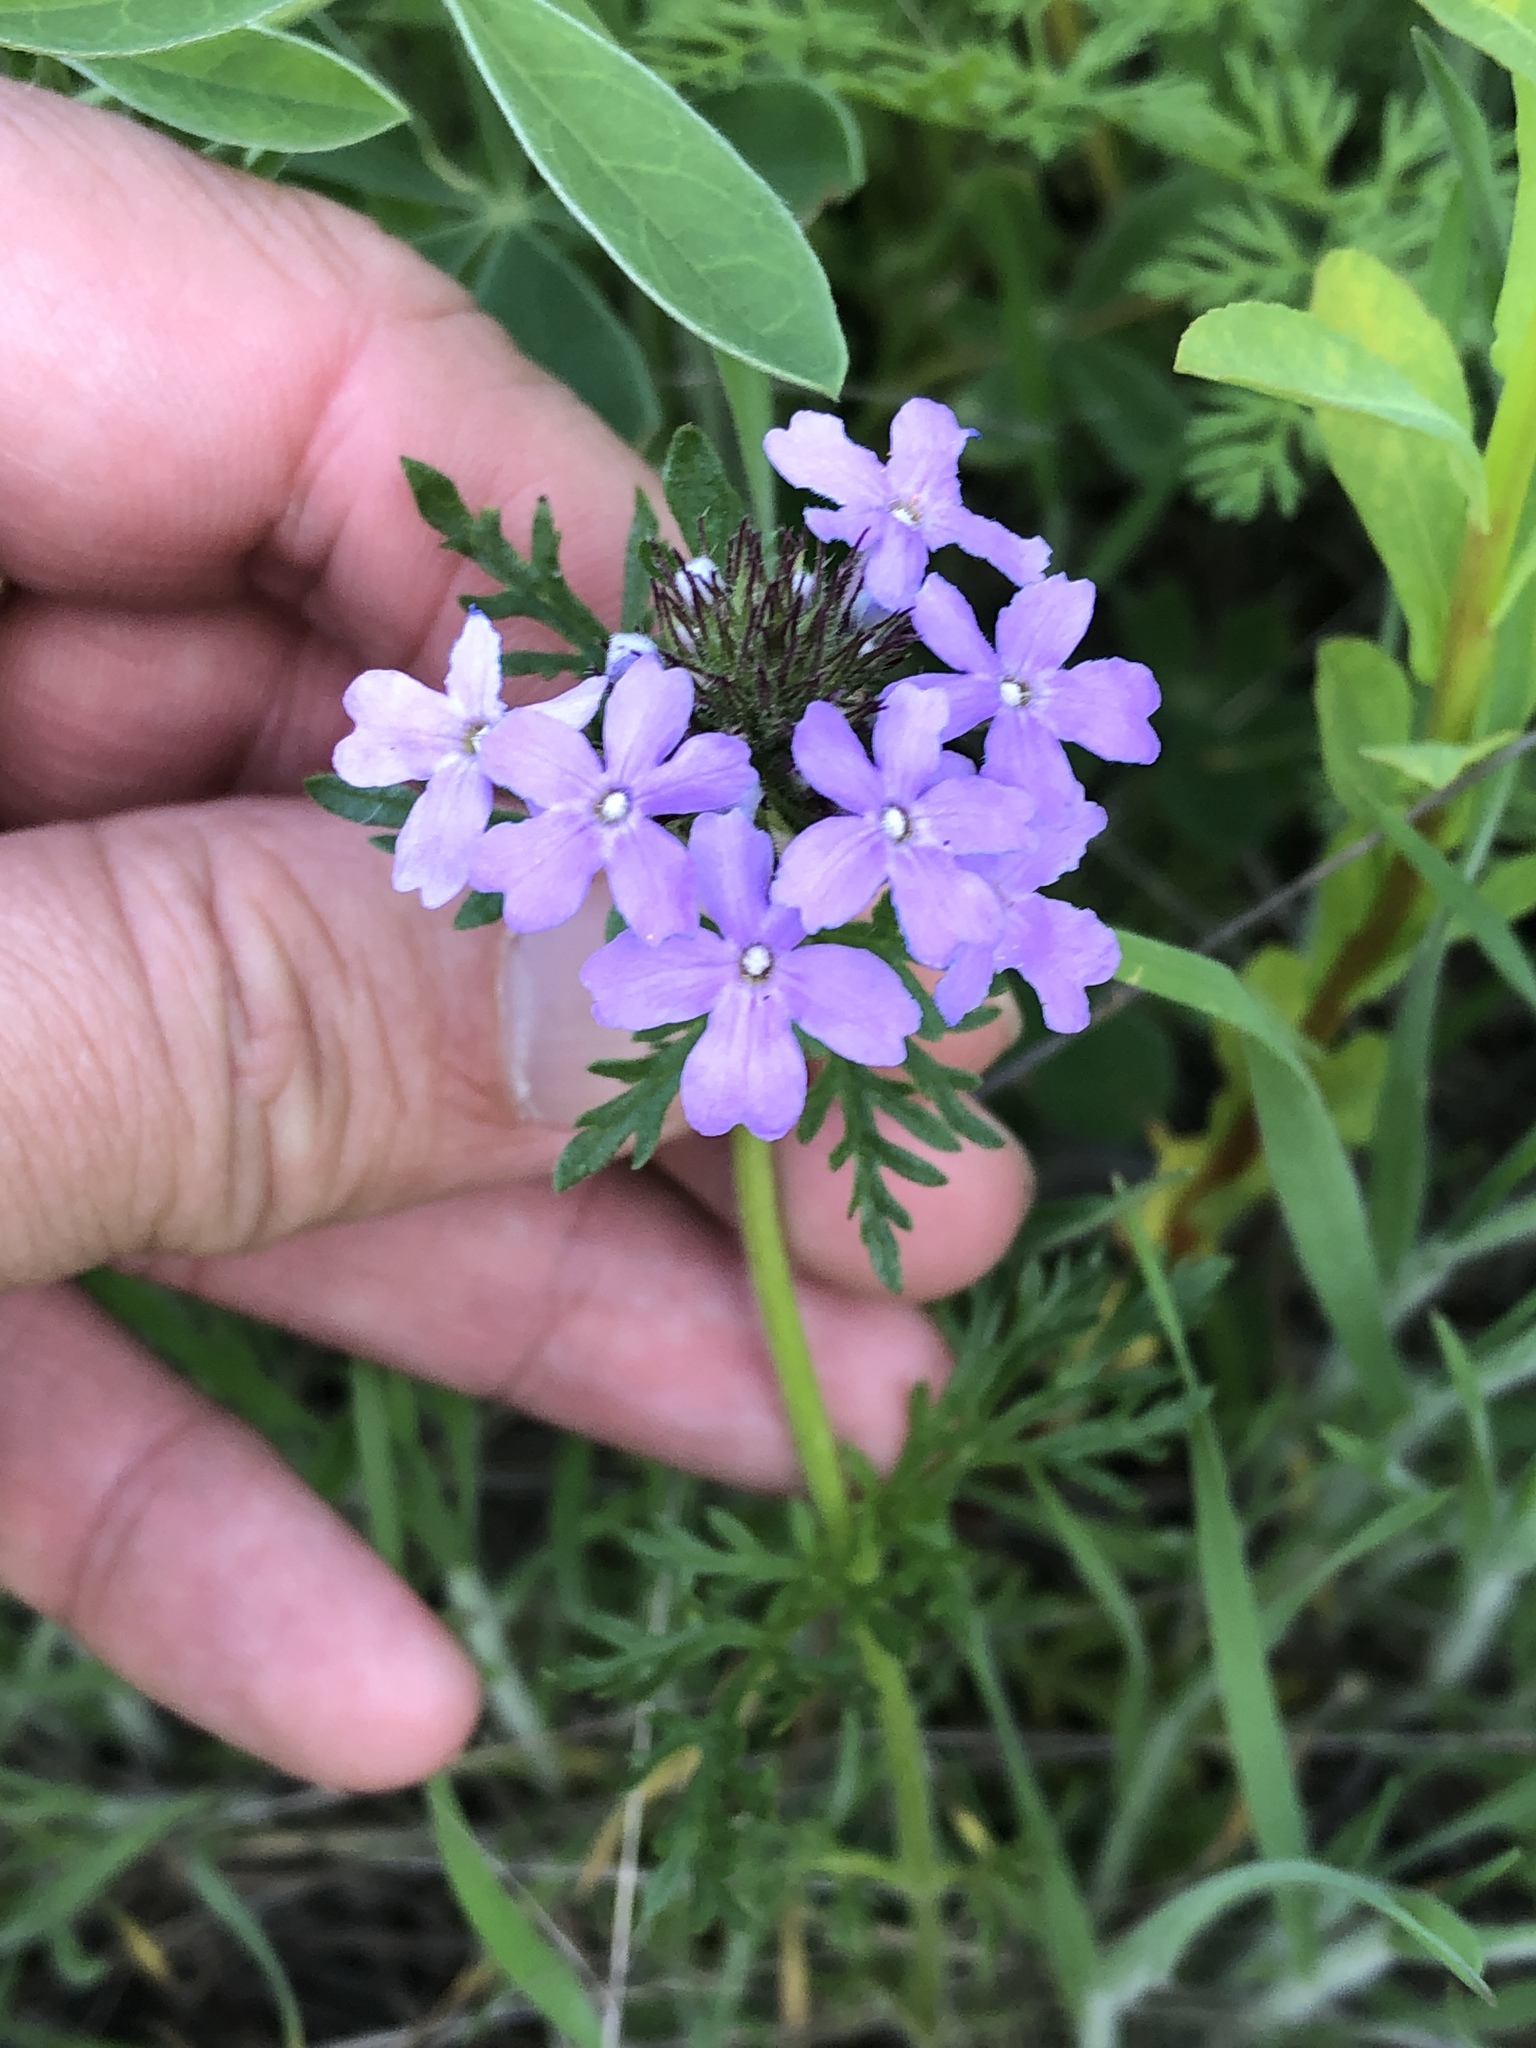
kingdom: Plantae
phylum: Tracheophyta
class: Magnoliopsida
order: Lamiales
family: Verbenaceae
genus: Verbena
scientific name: Verbena bipinnatifida
